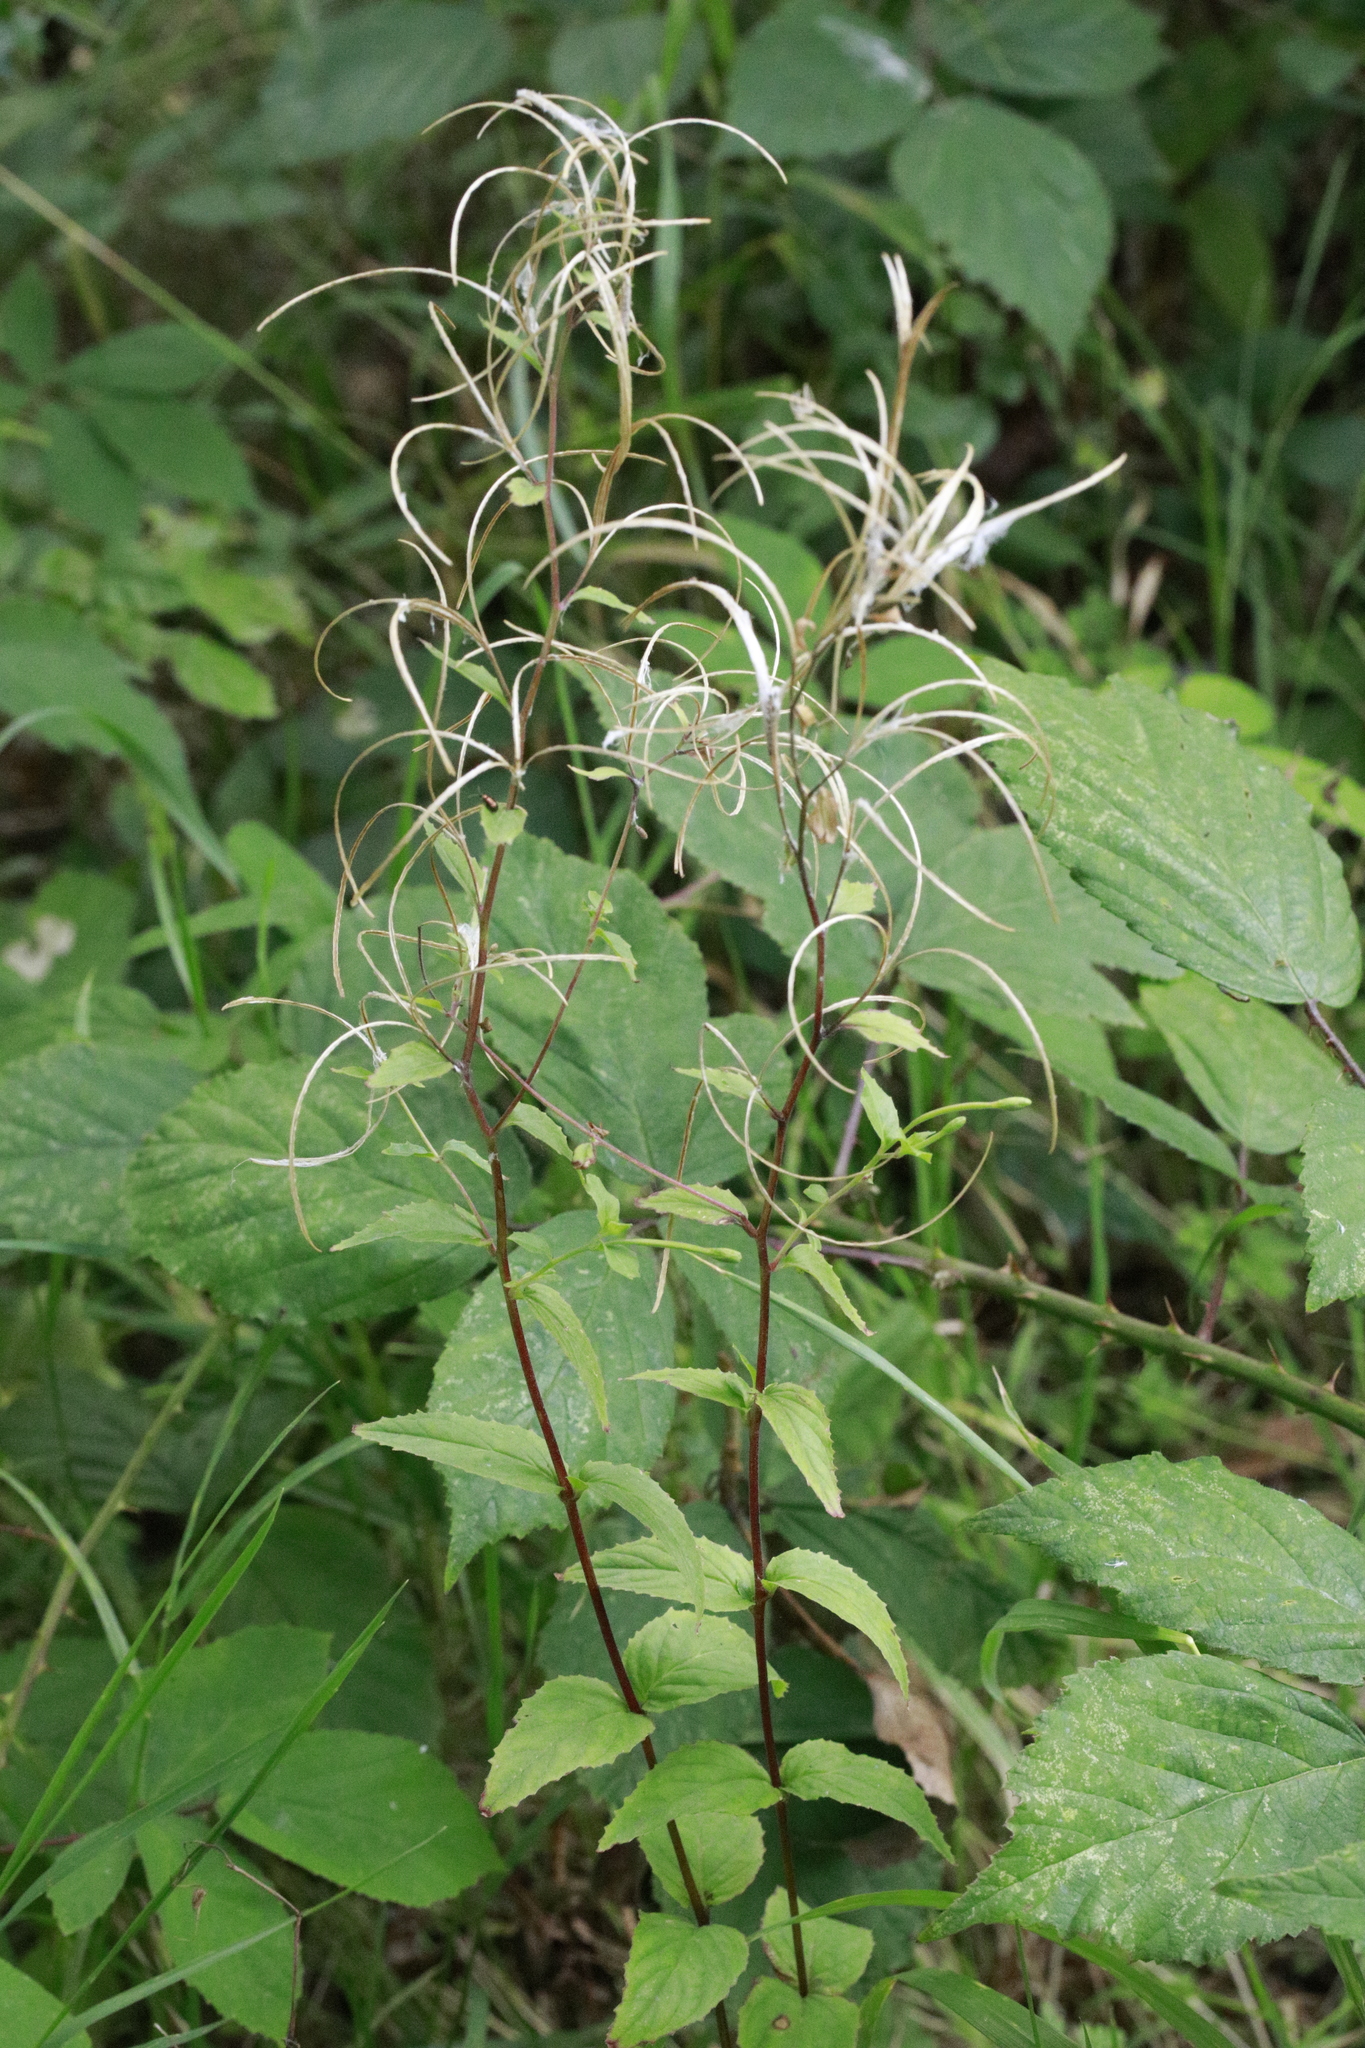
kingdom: Plantae
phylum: Tracheophyta
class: Magnoliopsida
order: Myrtales
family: Onagraceae
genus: Epilobium
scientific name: Epilobium montanum
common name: Broad-leaved willowherb
